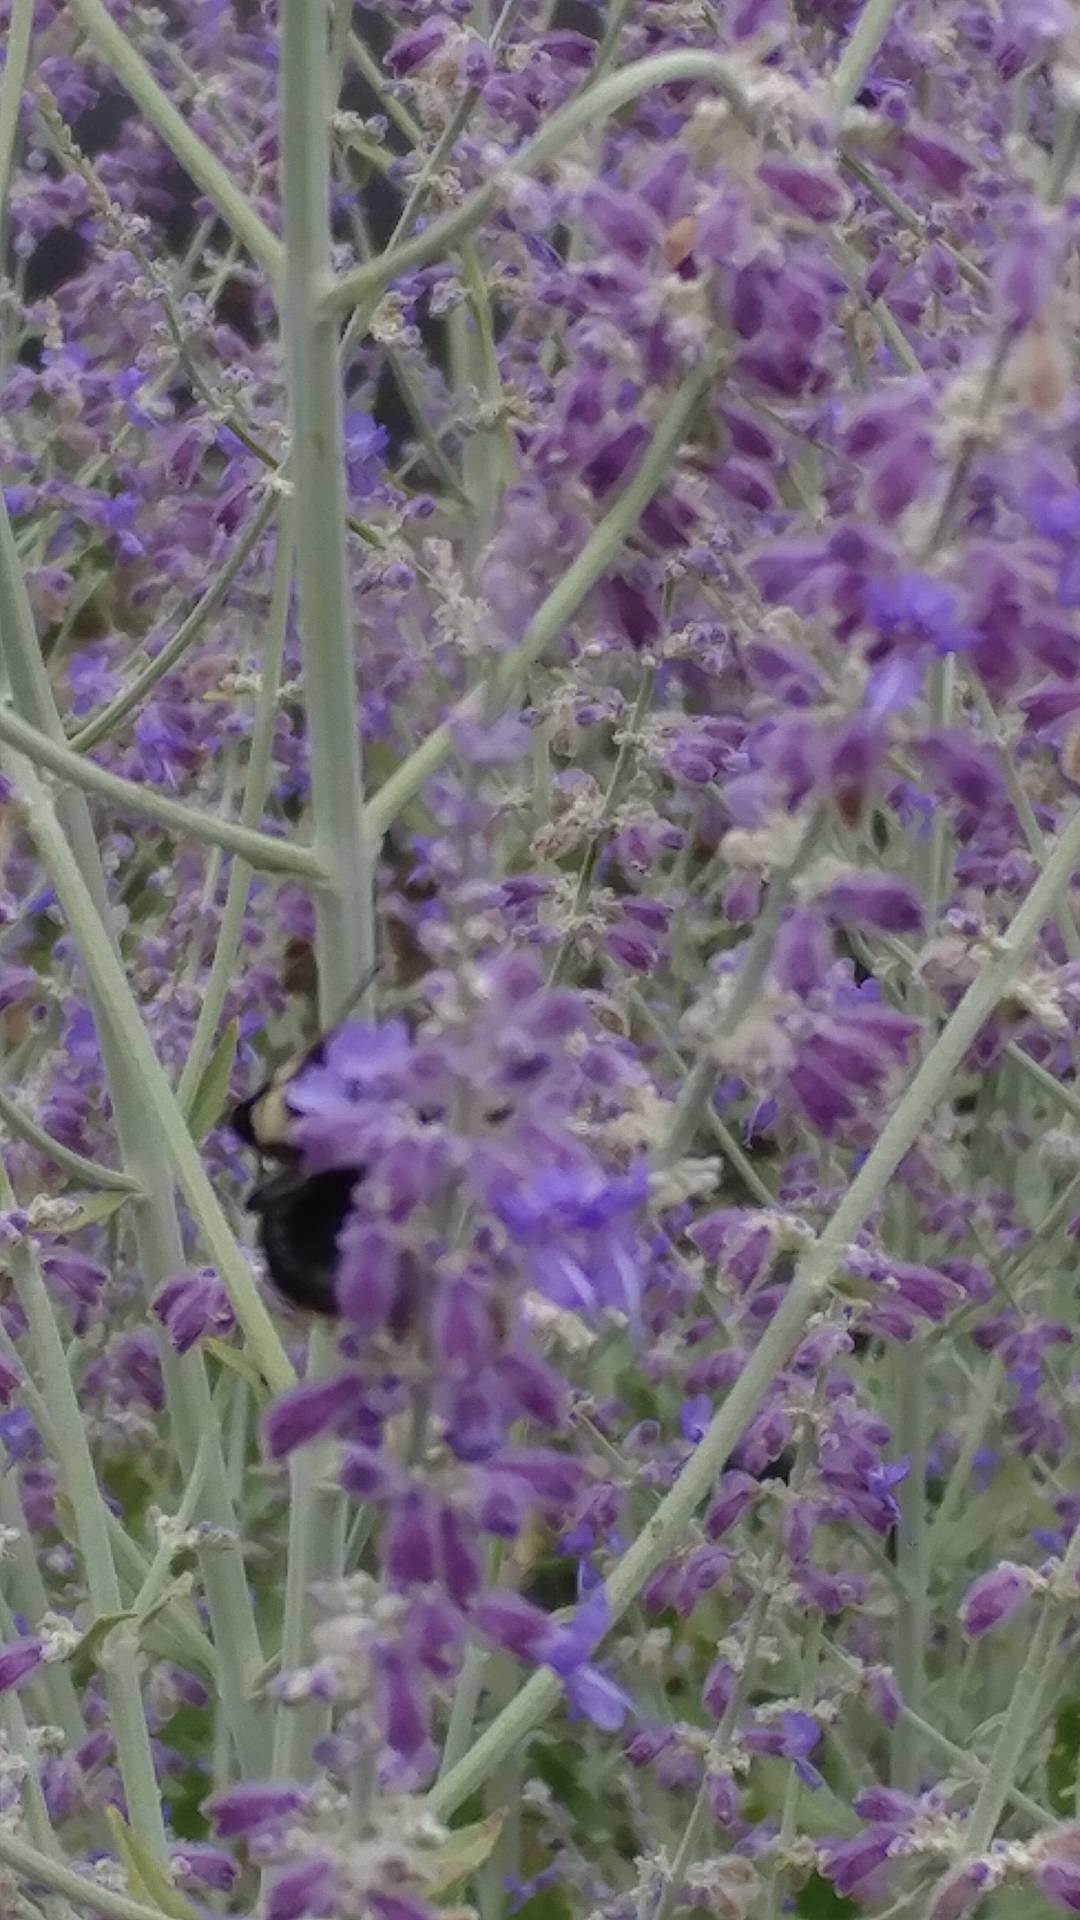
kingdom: Animalia
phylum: Arthropoda
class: Insecta
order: Hymenoptera
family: Apidae
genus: Bombus
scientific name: Bombus impatiens
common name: Common eastern bumble bee
